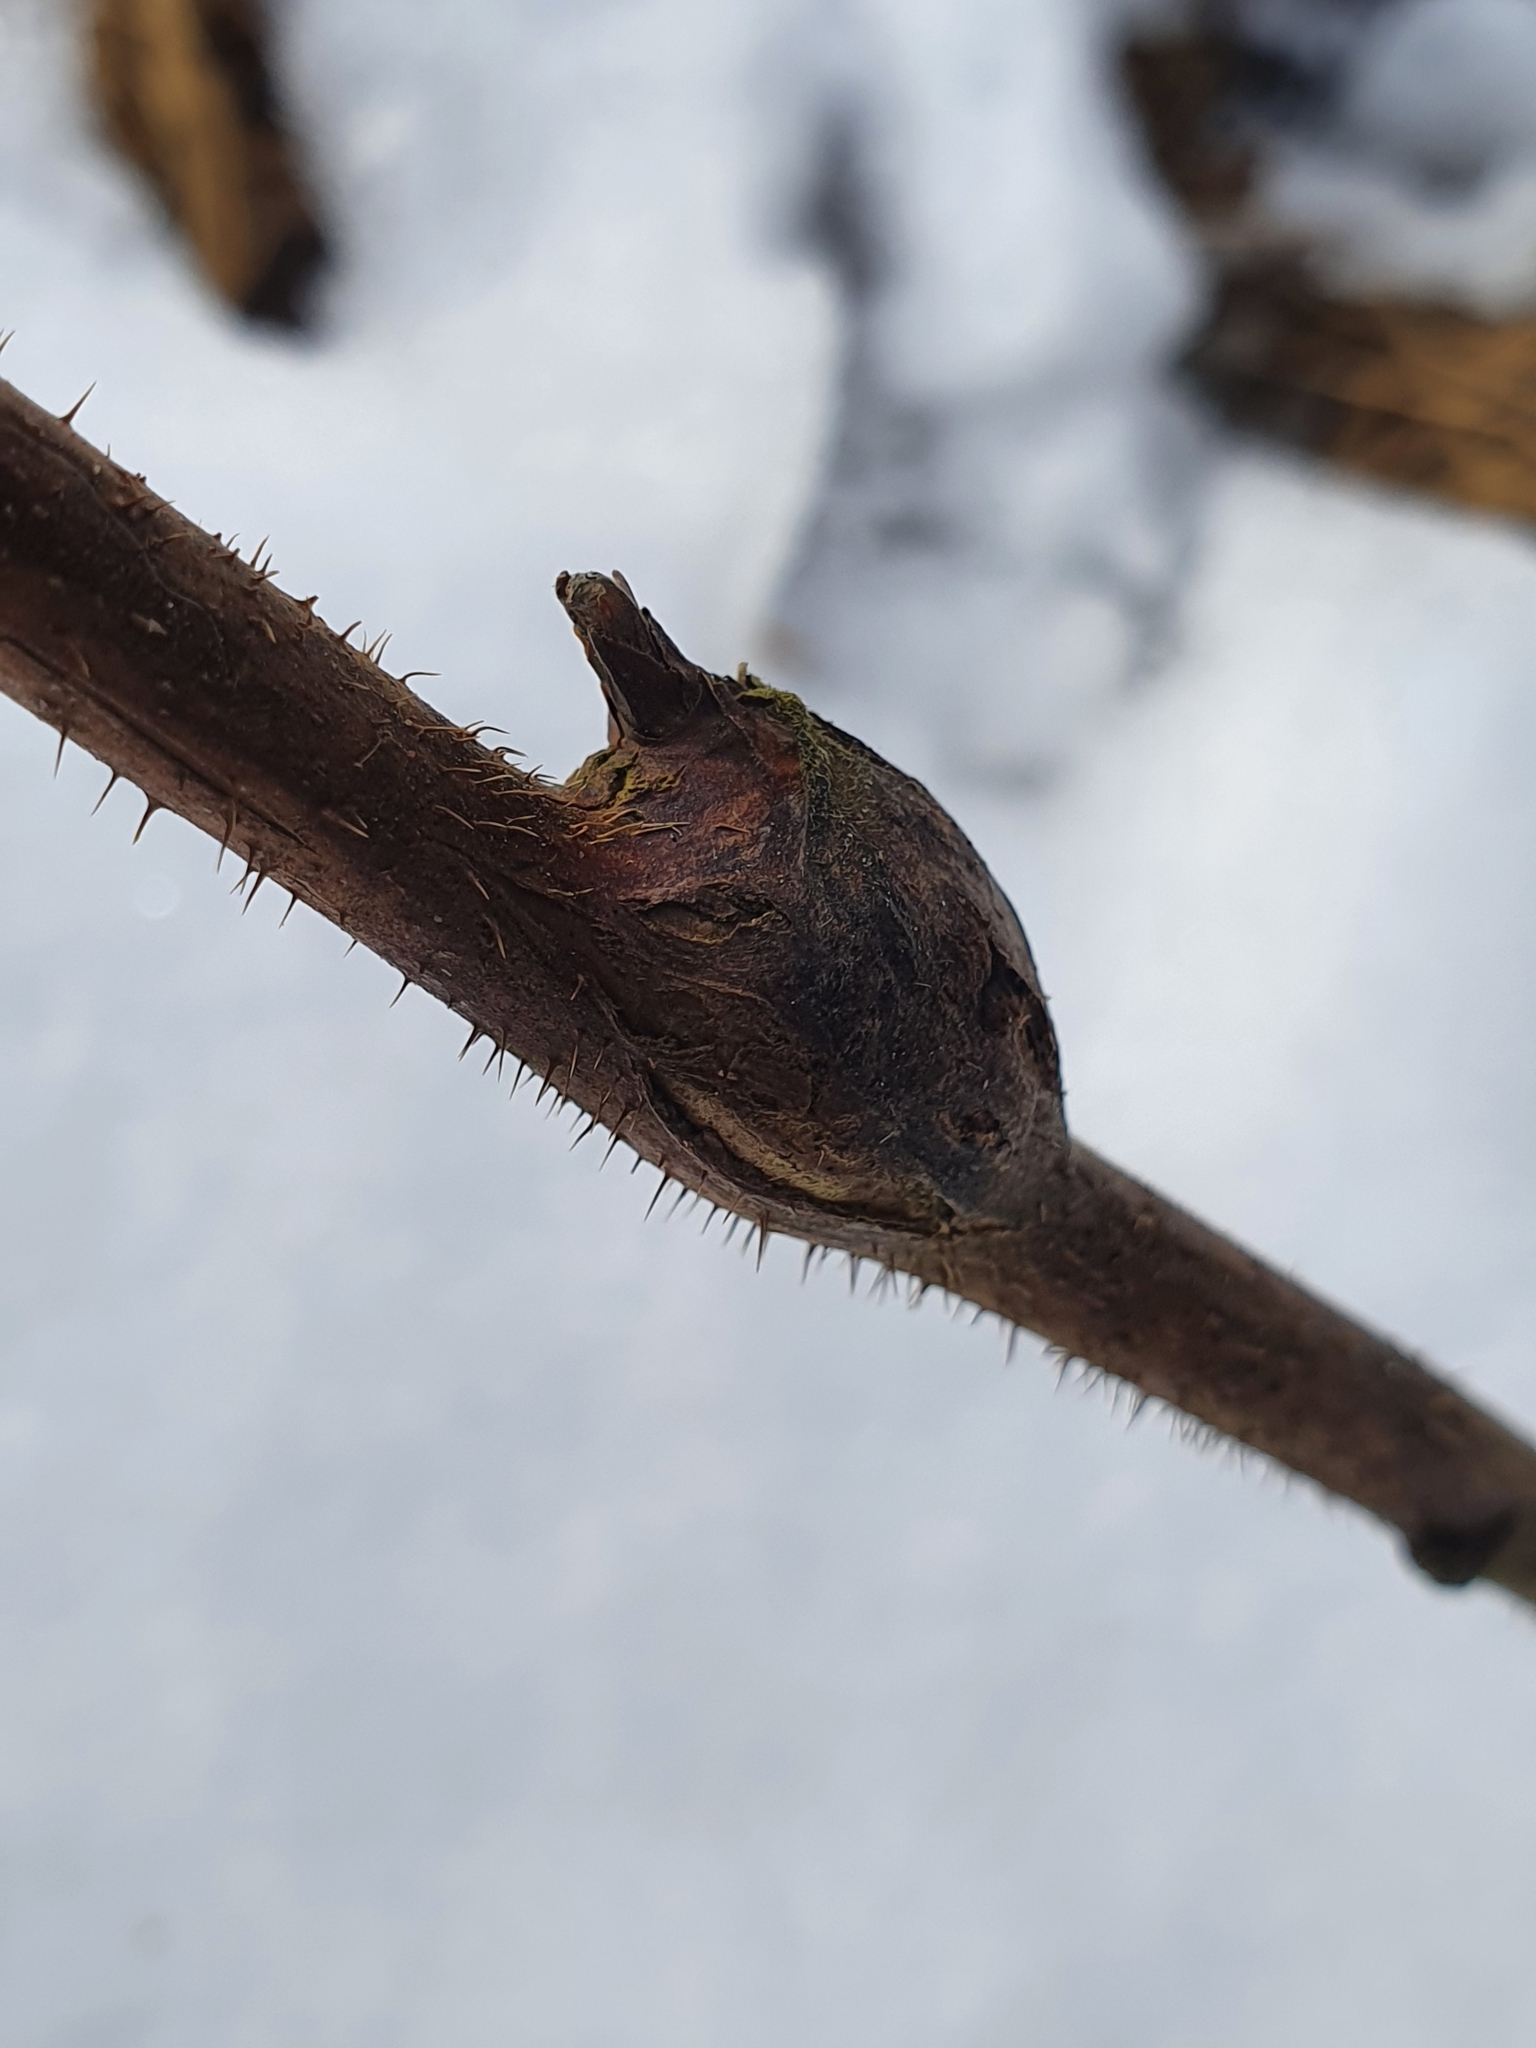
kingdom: Animalia
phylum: Arthropoda
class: Insecta
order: Diptera
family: Cecidomyiidae
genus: Lasioptera
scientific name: Lasioptera rubi
